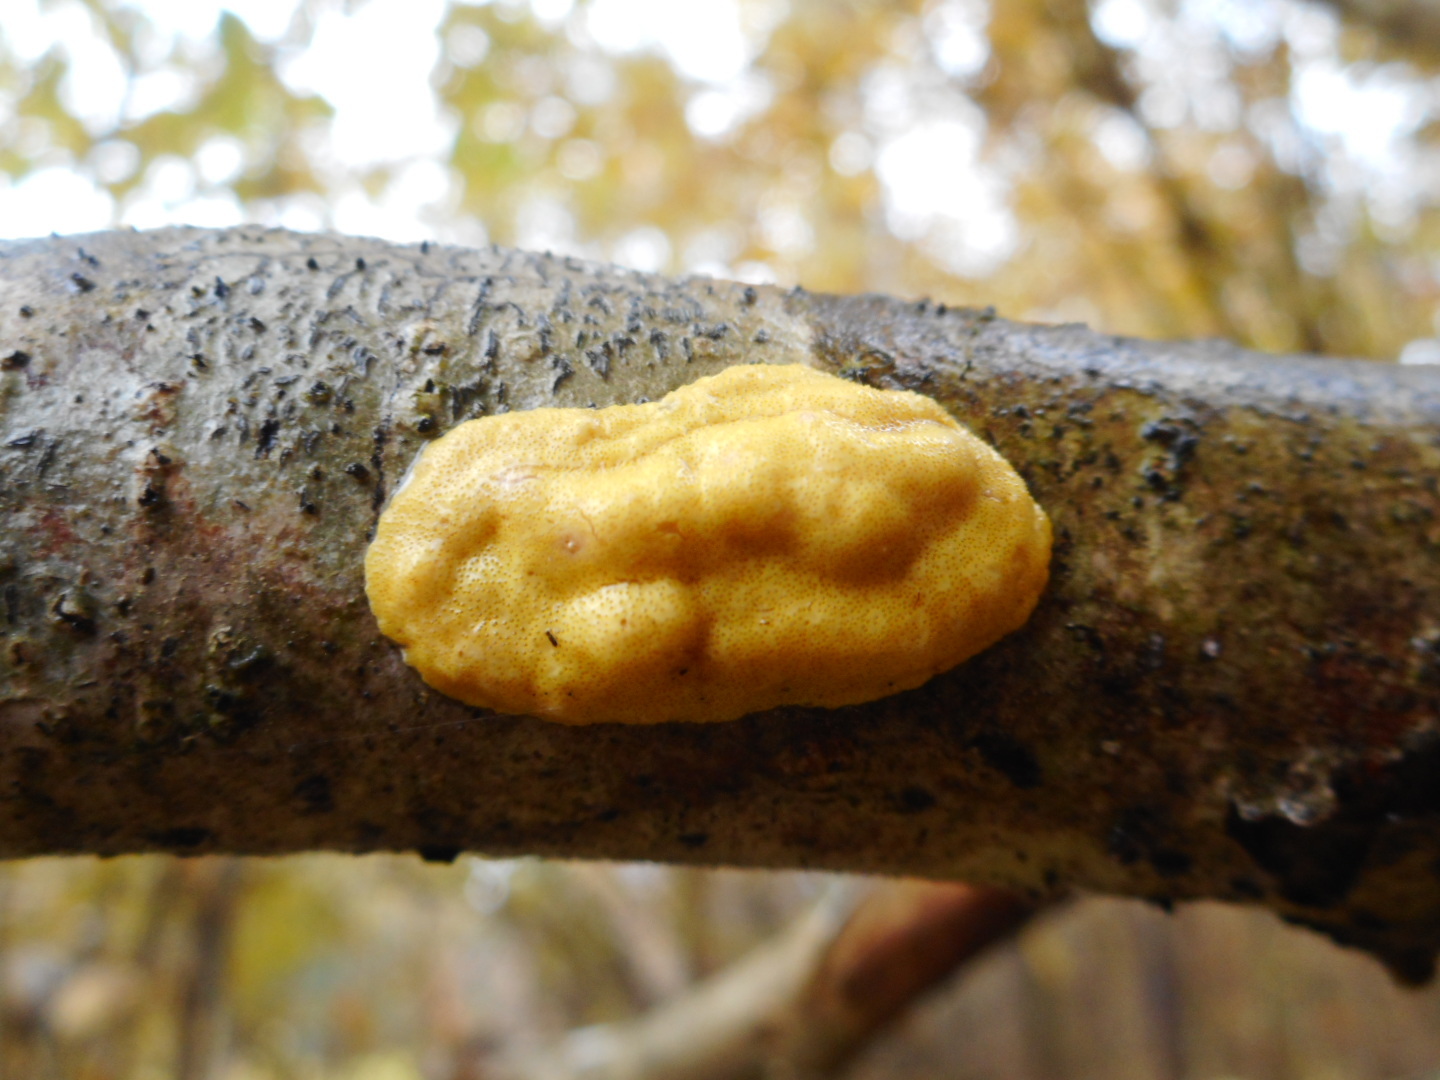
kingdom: Fungi
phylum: Ascomycota
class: Sordariomycetes
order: Hypocreales
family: Hypocreaceae
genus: Trichoderma
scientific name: Trichoderma sulphureum
